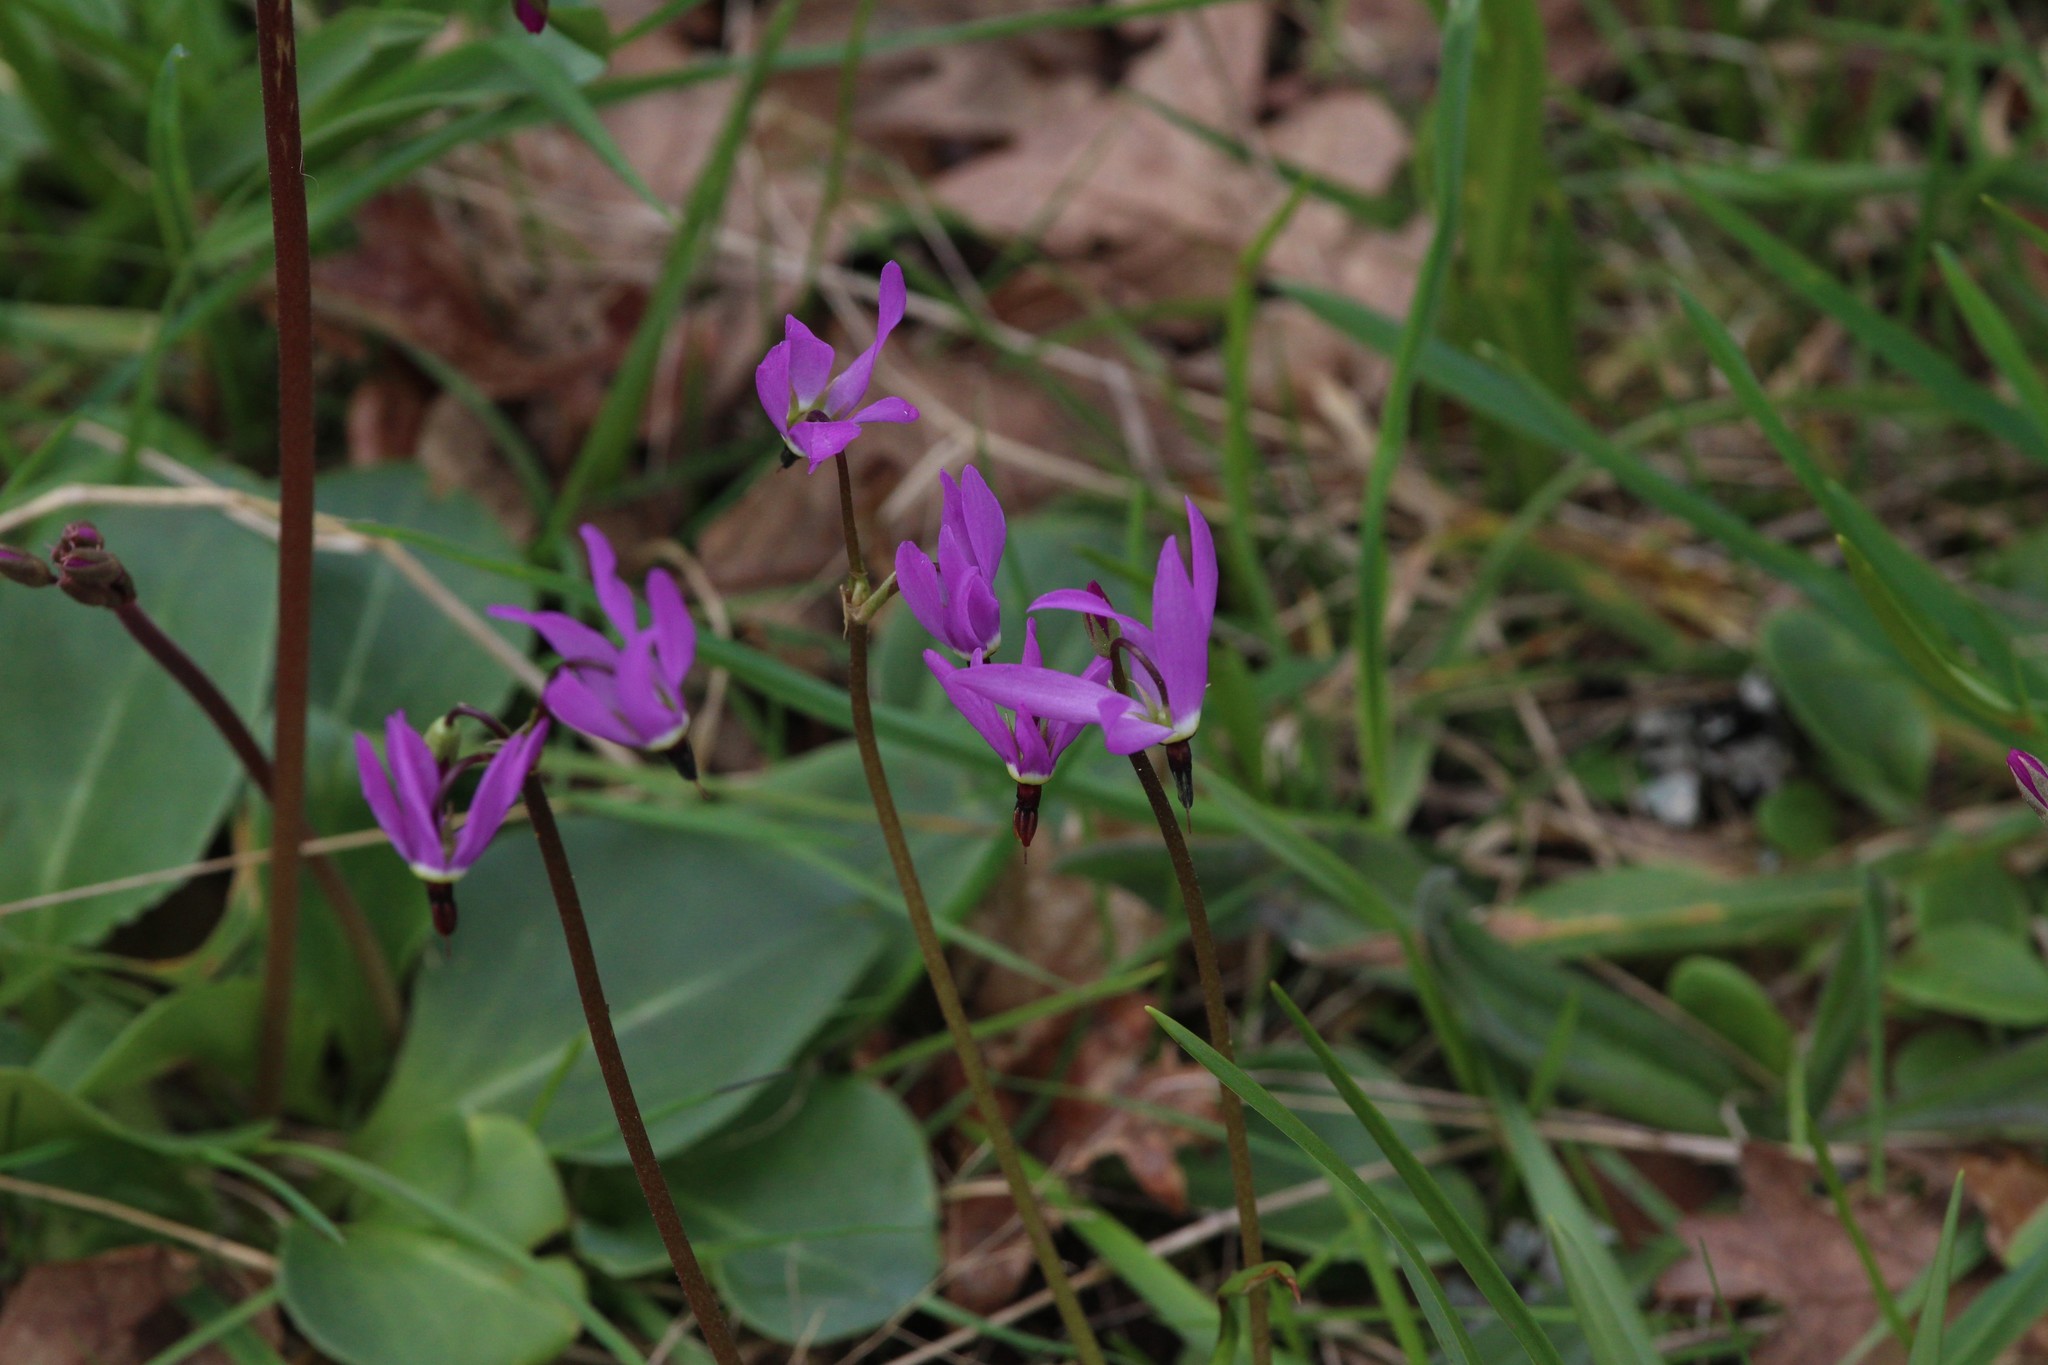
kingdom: Plantae
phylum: Tracheophyta
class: Magnoliopsida
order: Ericales
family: Primulaceae
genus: Dodecatheon
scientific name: Dodecatheon hendersonii
